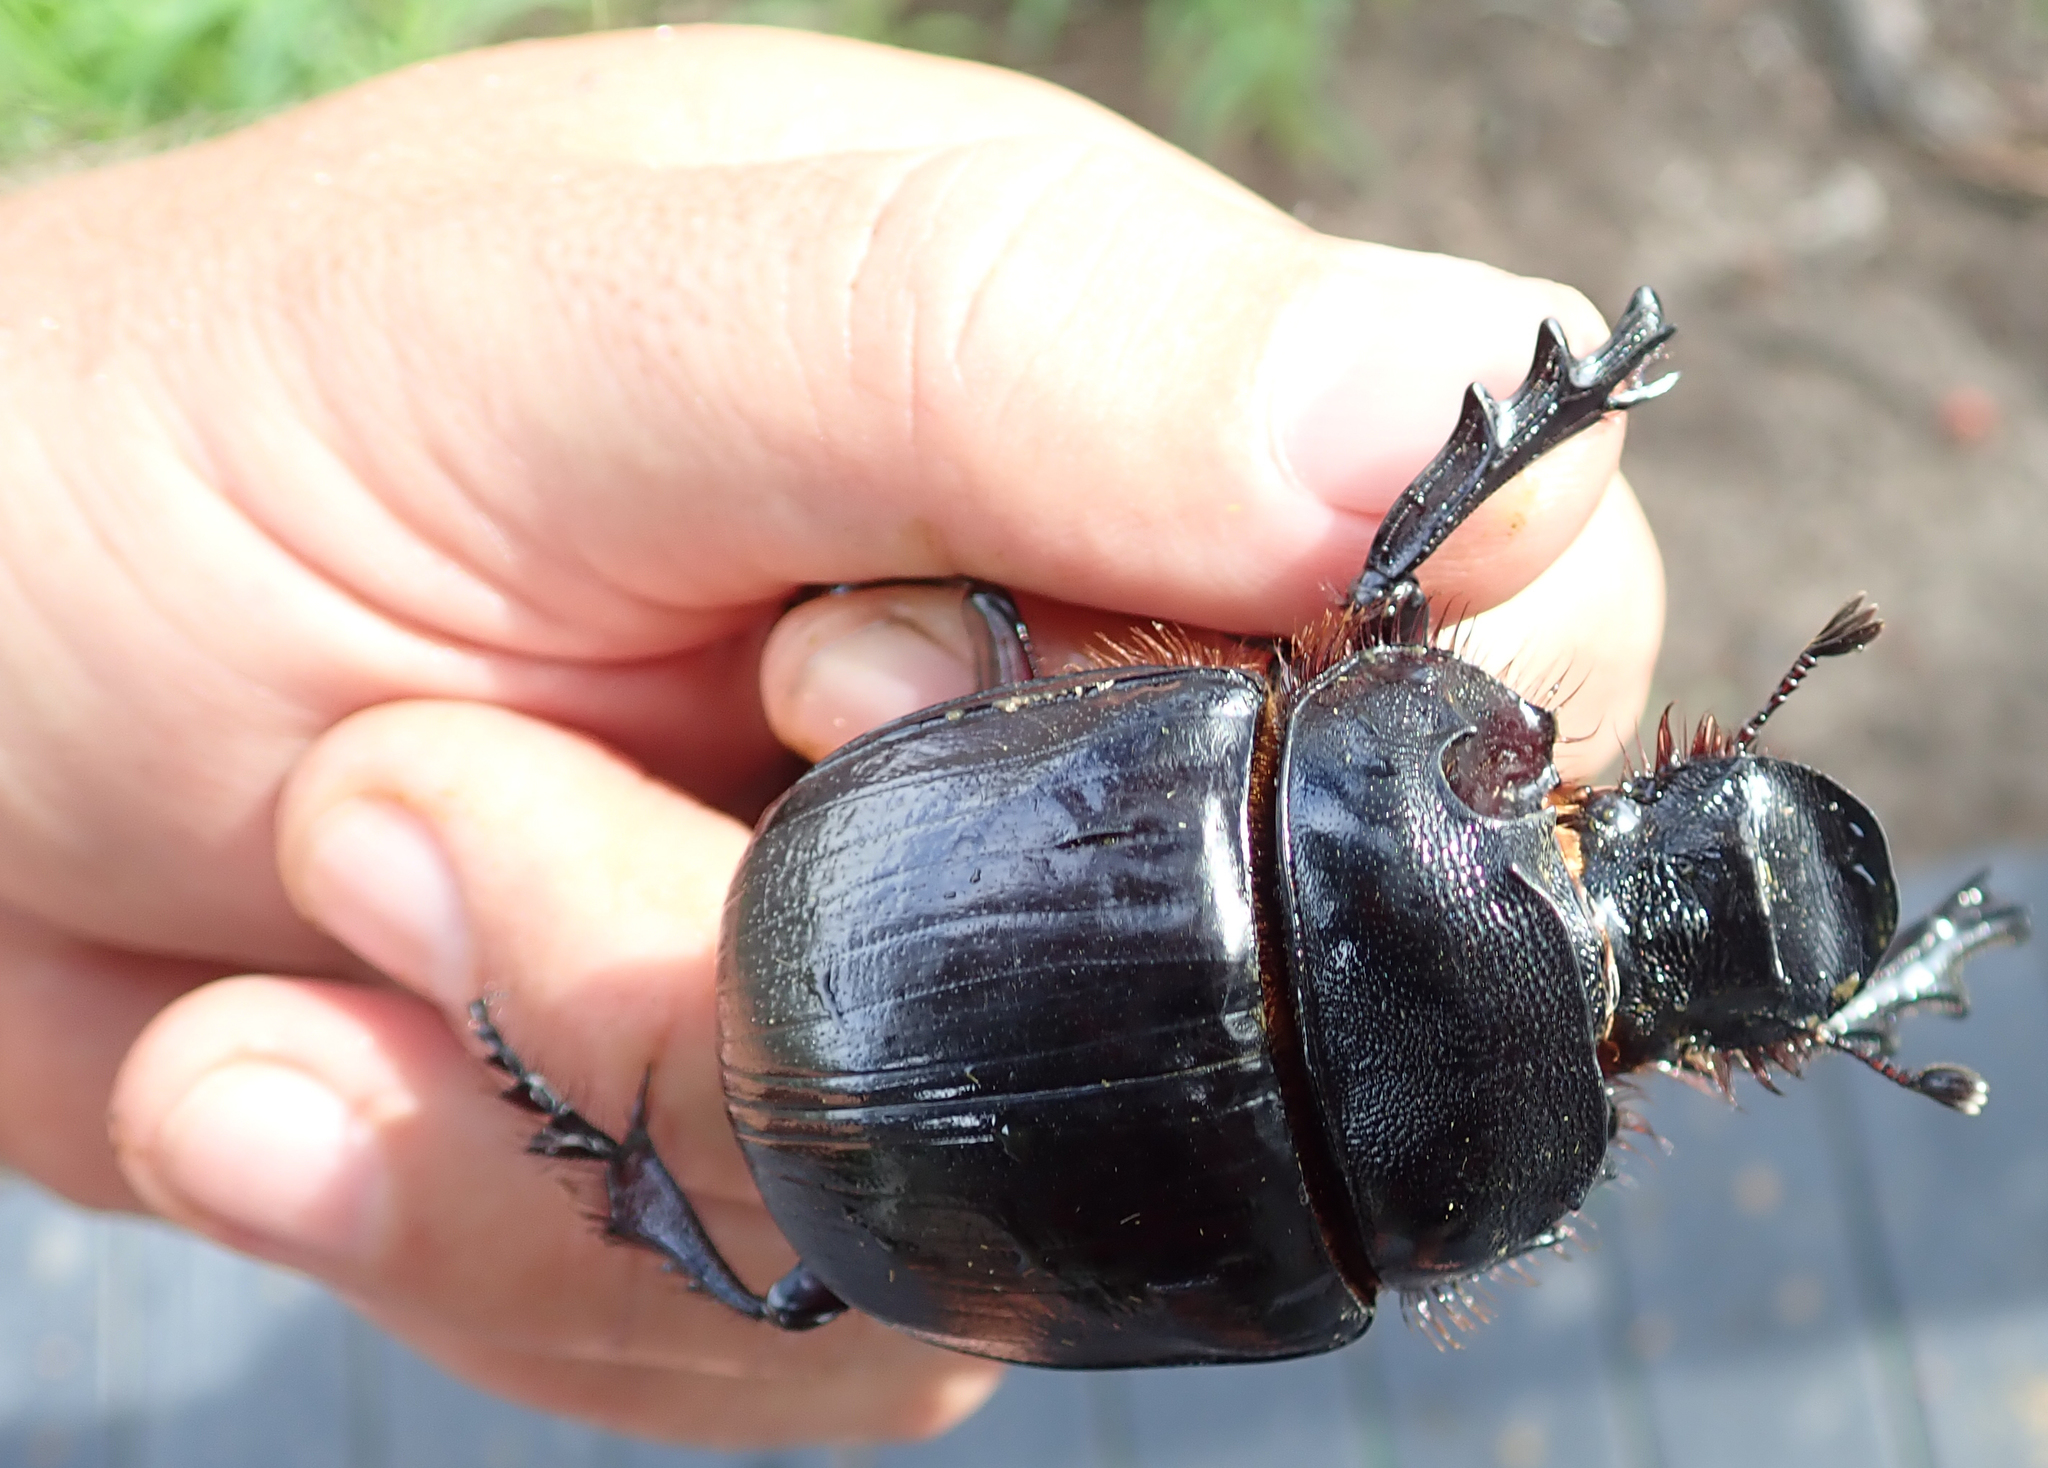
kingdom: Animalia
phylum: Arthropoda
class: Insecta
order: Coleoptera
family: Scarabaeidae
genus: Heliocopris
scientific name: Heliocopris japetus
